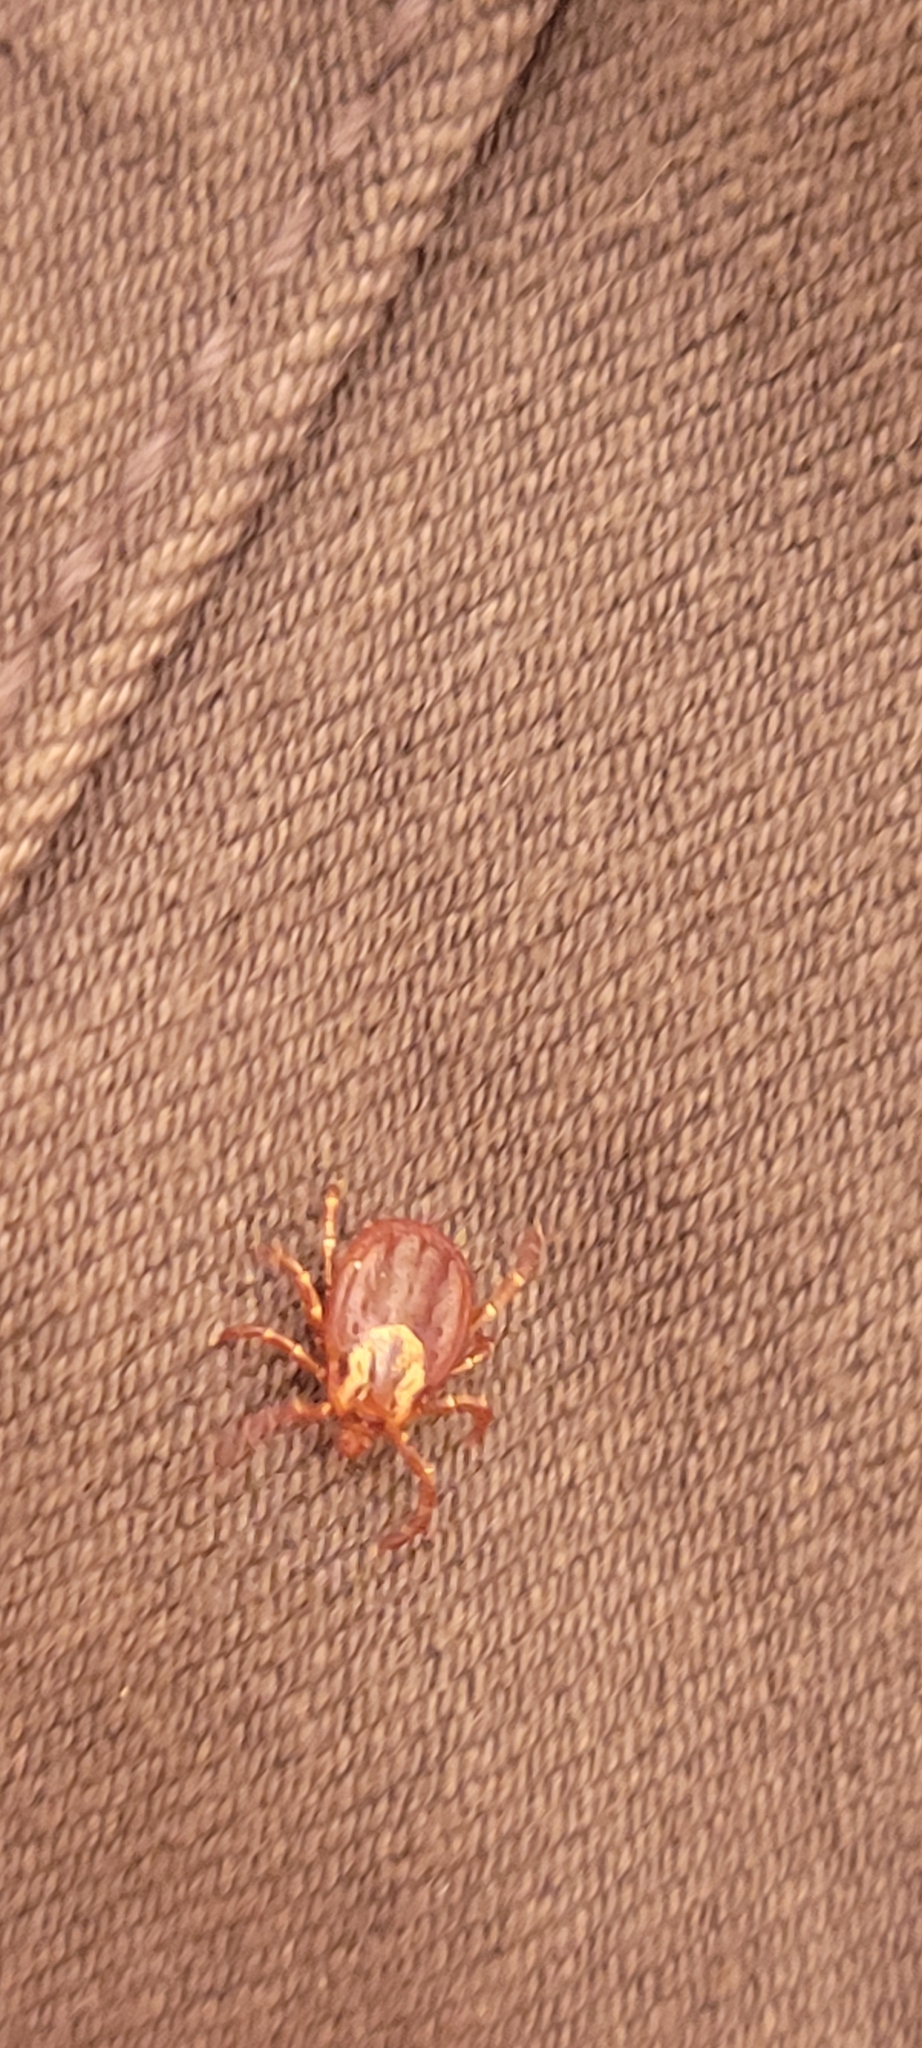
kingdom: Animalia
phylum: Arthropoda
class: Arachnida
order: Ixodida
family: Ixodidae
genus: Dermacentor
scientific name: Dermacentor variabilis
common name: American dog tick
